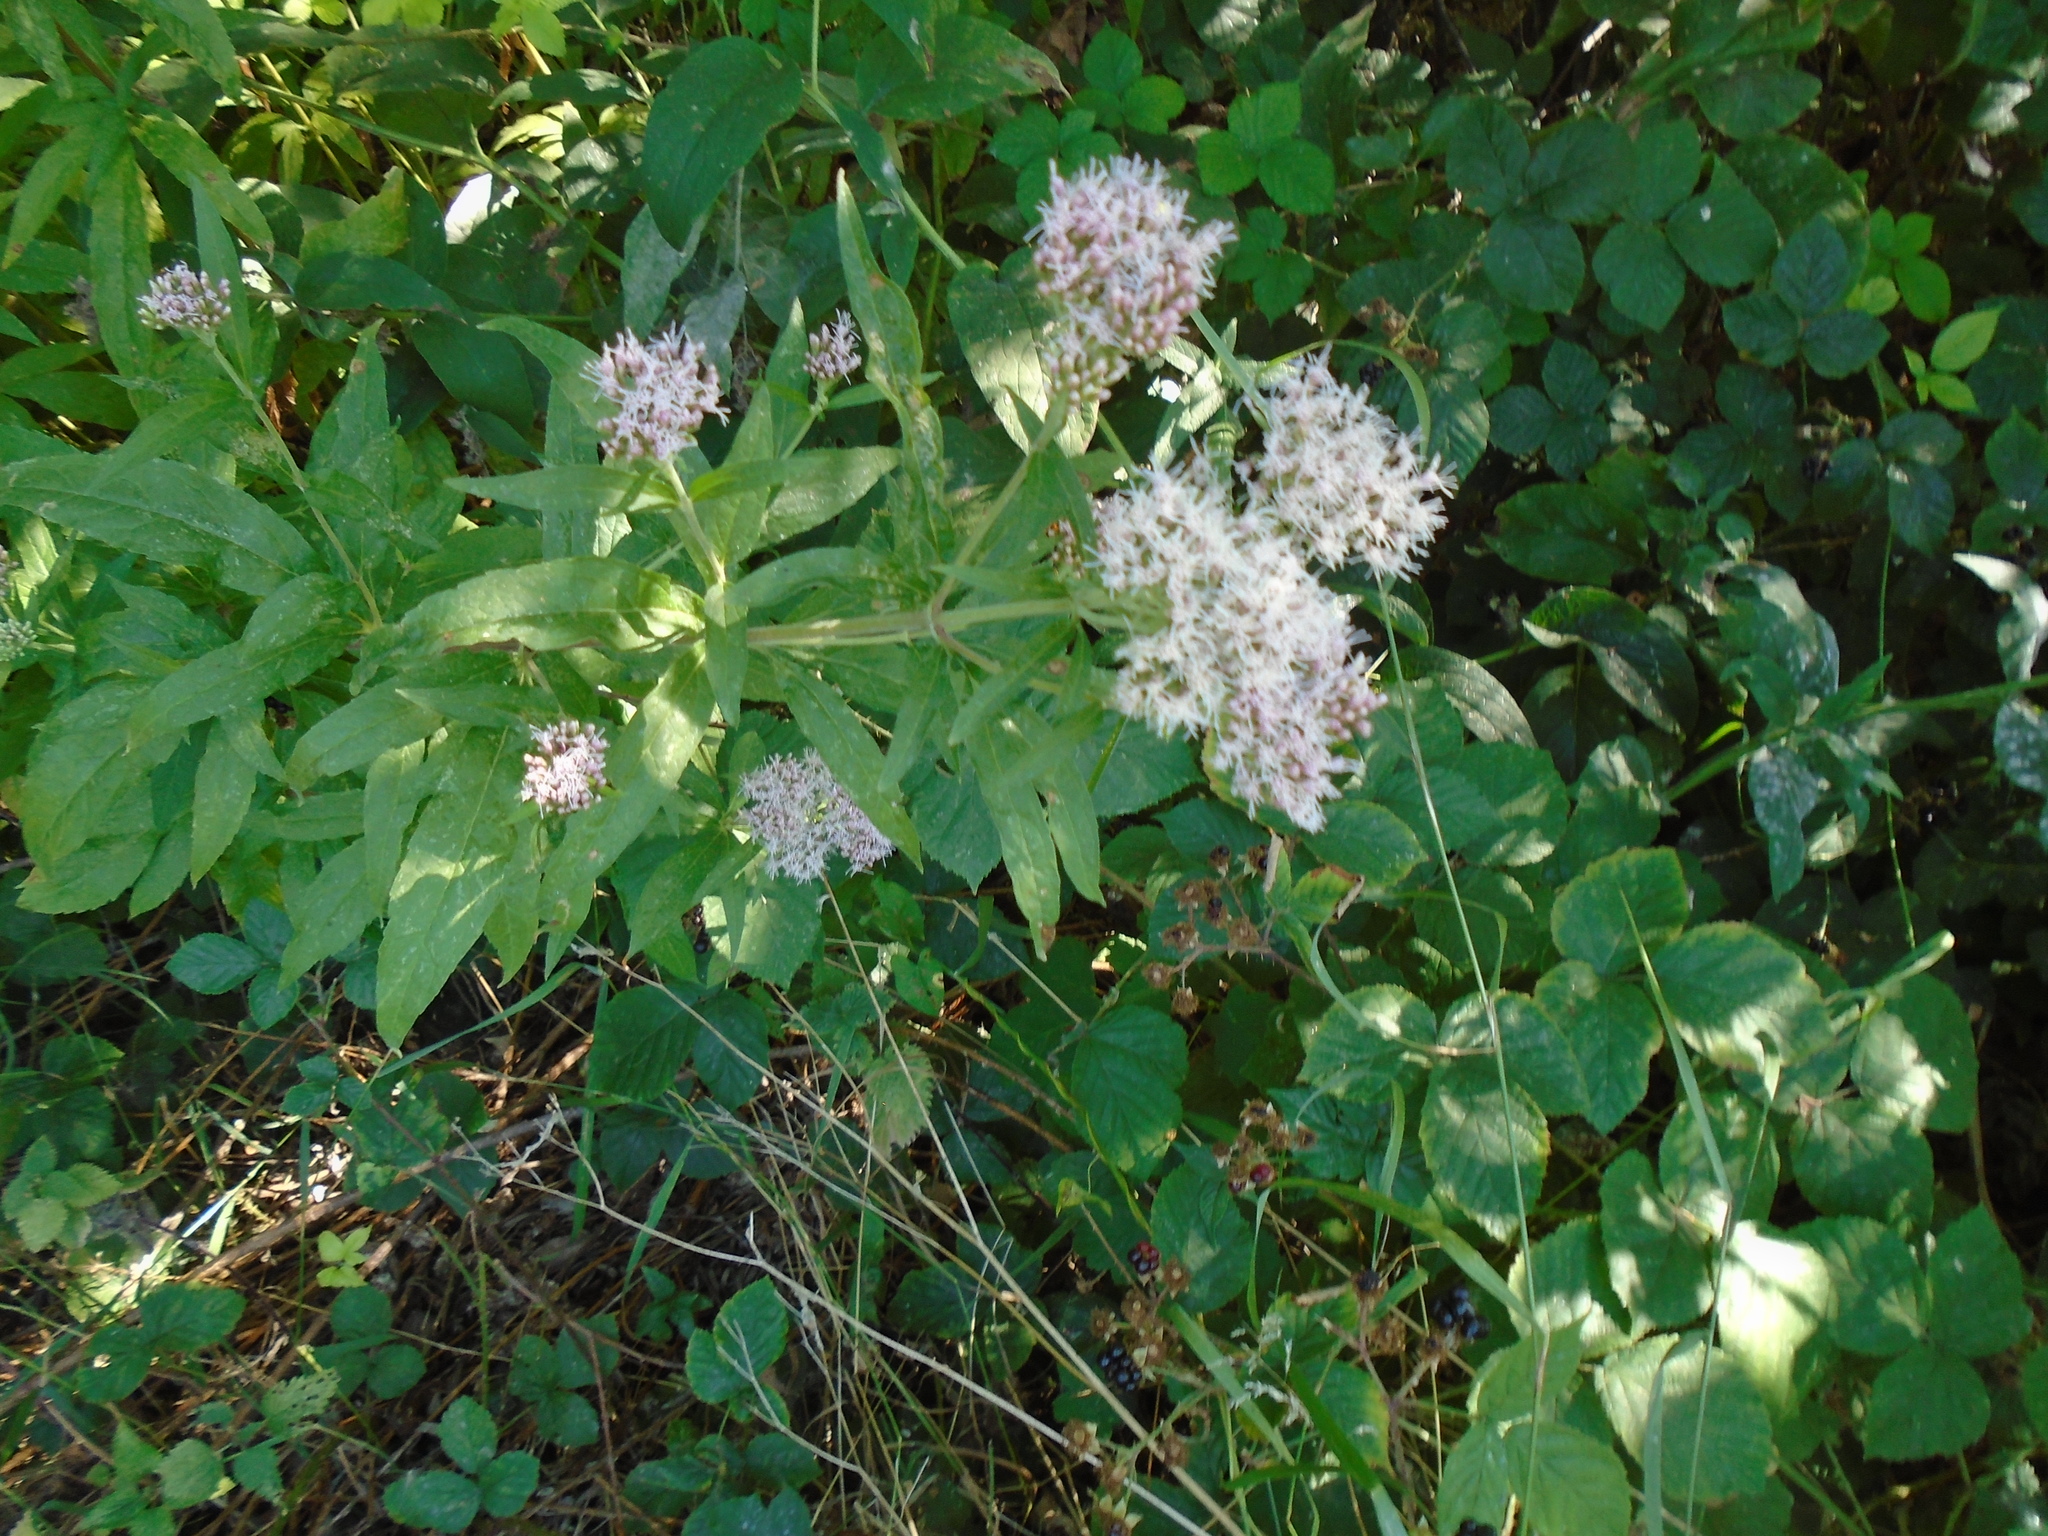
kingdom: Plantae
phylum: Tracheophyta
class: Magnoliopsida
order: Asterales
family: Asteraceae
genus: Eupatorium
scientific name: Eupatorium cannabinum
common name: Hemp-agrimony
